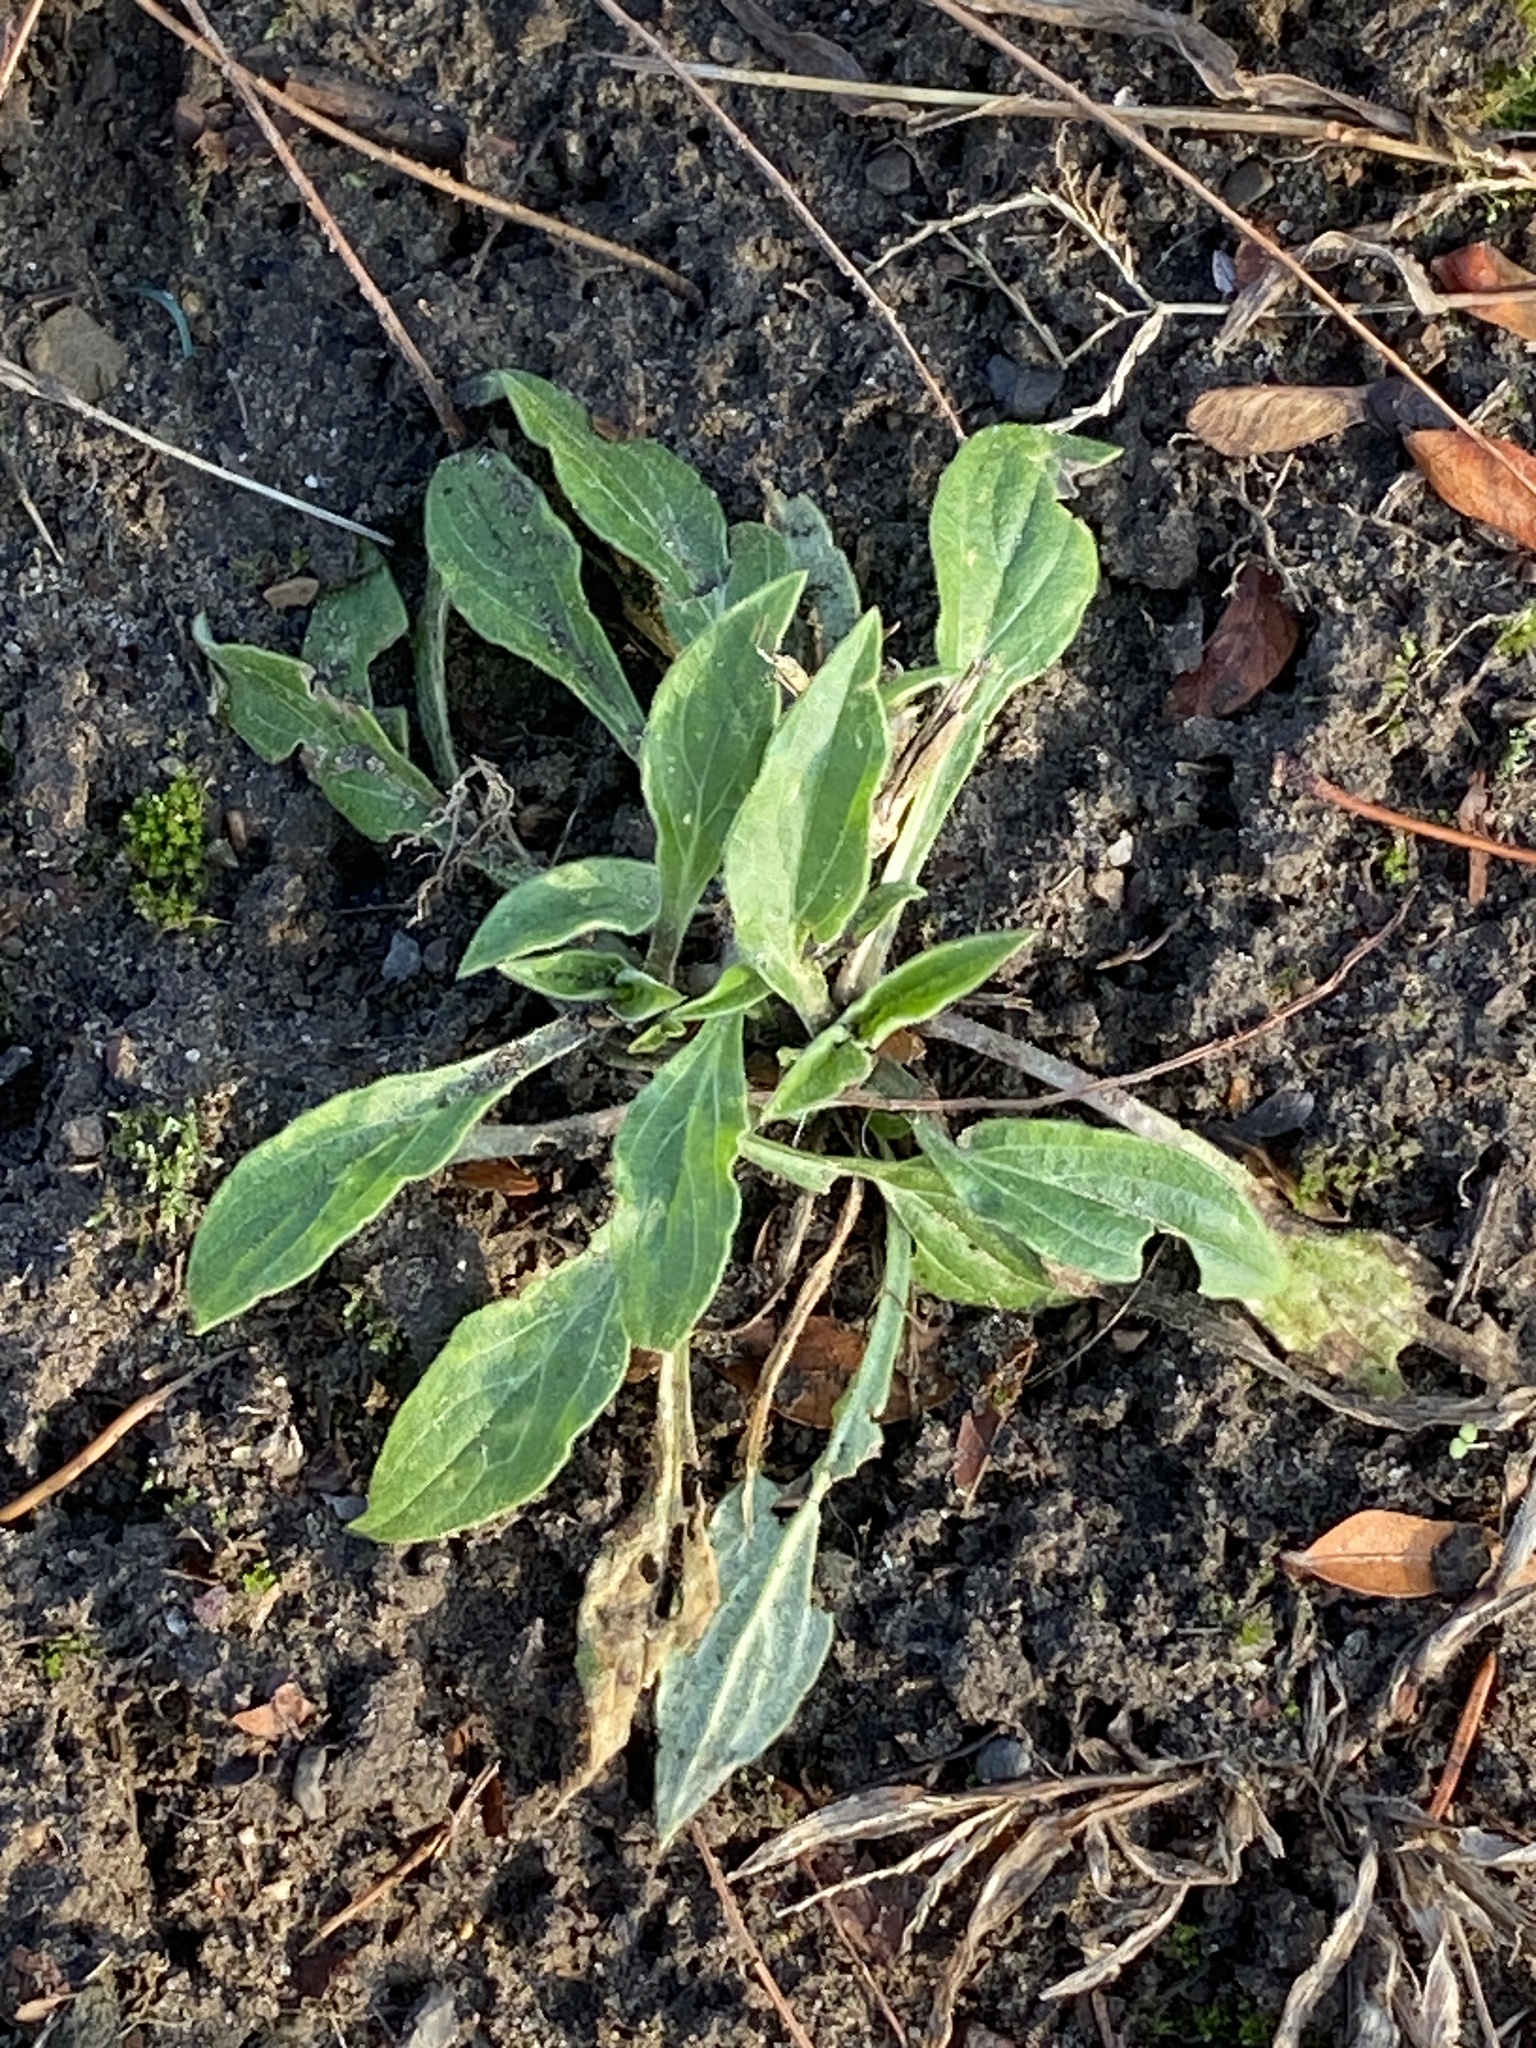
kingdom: Plantae
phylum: Tracheophyta
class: Magnoliopsida
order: Caryophyllales
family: Caryophyllaceae
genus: Silene
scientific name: Silene latifolia
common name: White campion
